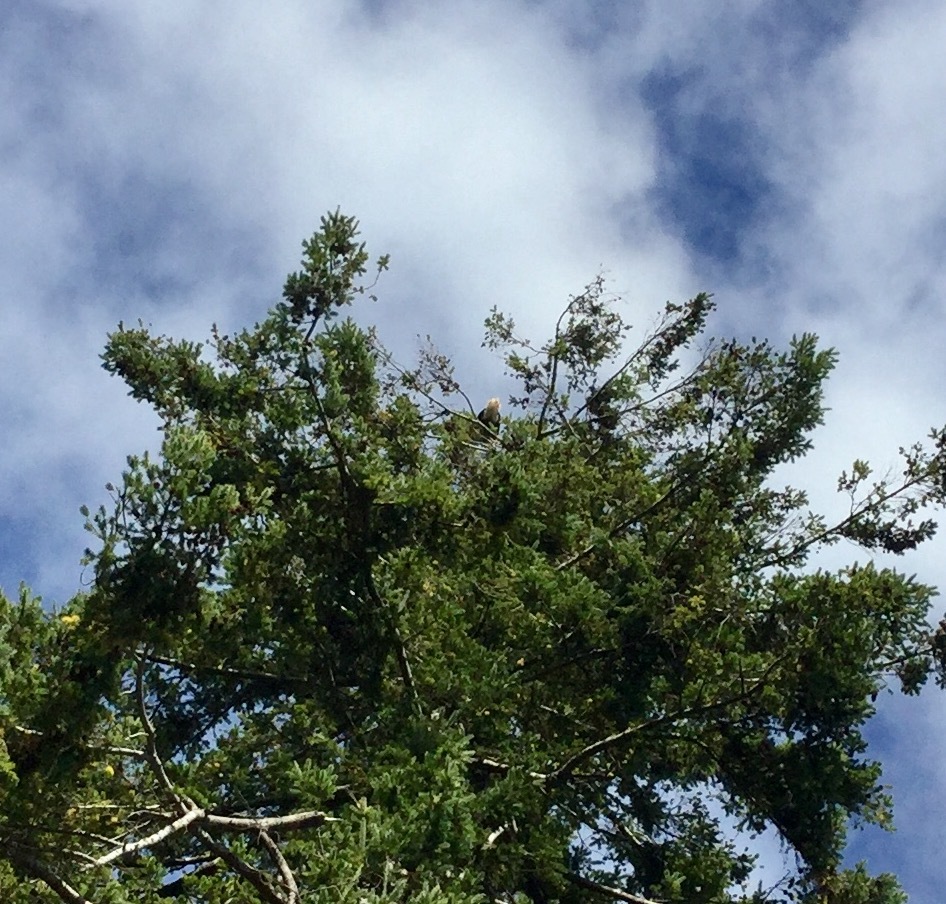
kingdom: Animalia
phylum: Chordata
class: Aves
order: Accipitriformes
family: Accipitridae
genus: Haliaeetus
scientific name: Haliaeetus leucocephalus
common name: Bald eagle
